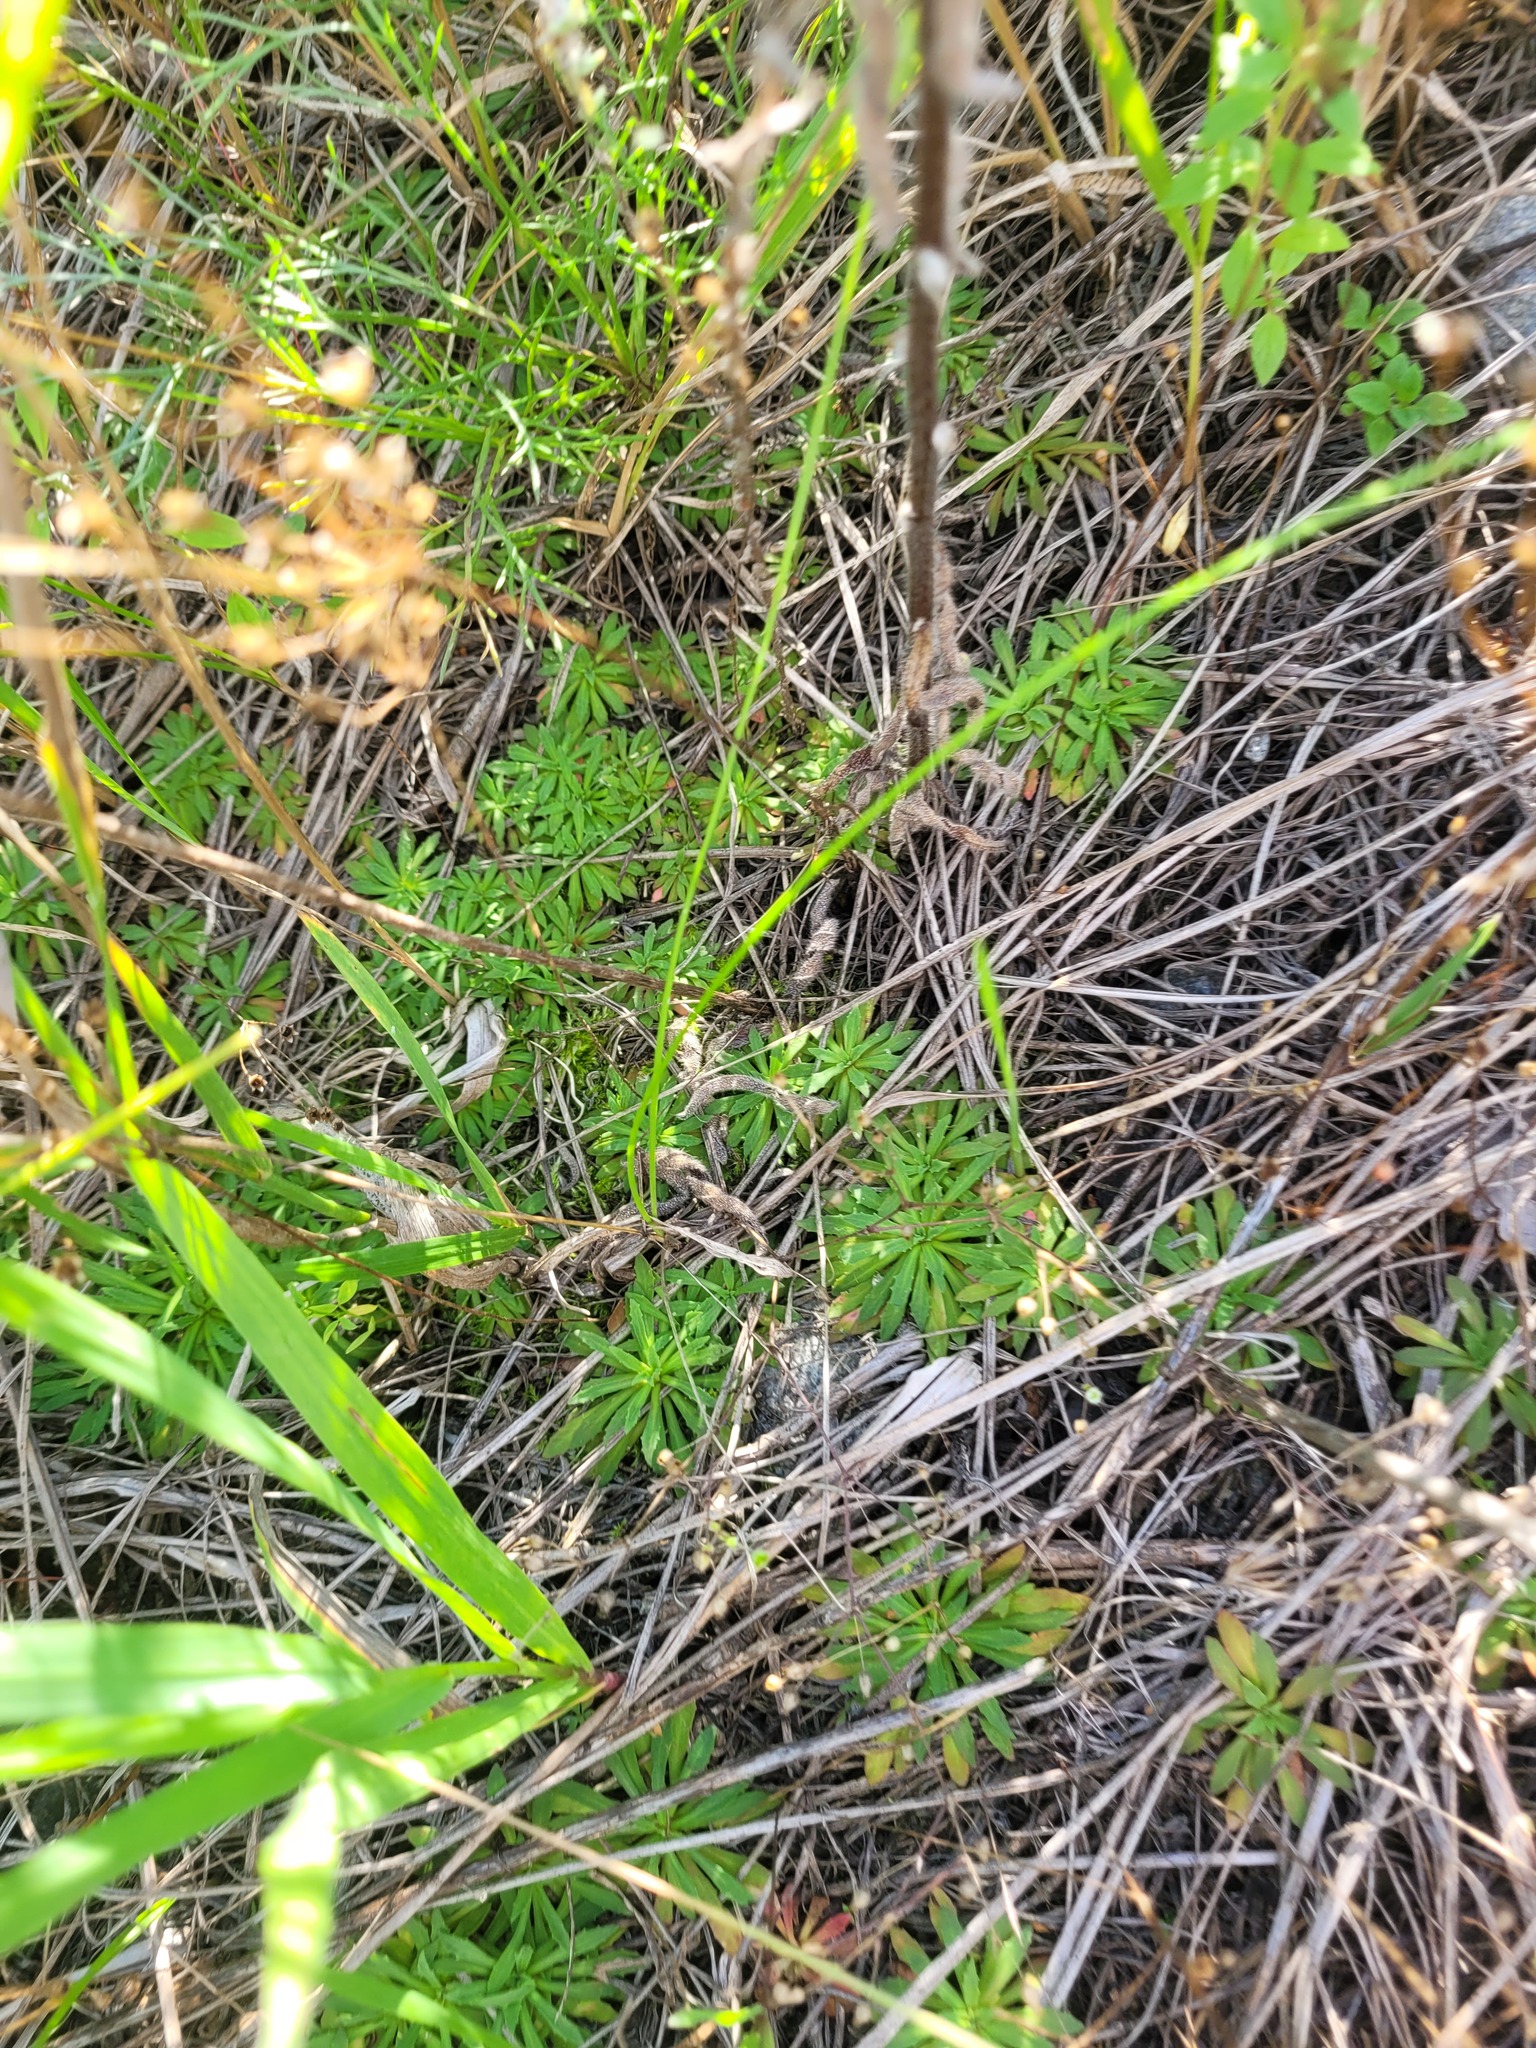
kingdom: Plantae
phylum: Tracheophyta
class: Magnoliopsida
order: Ericales
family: Primulaceae
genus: Androsace
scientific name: Androsace septentrionalis
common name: Hairy northern fairy-candelabra
